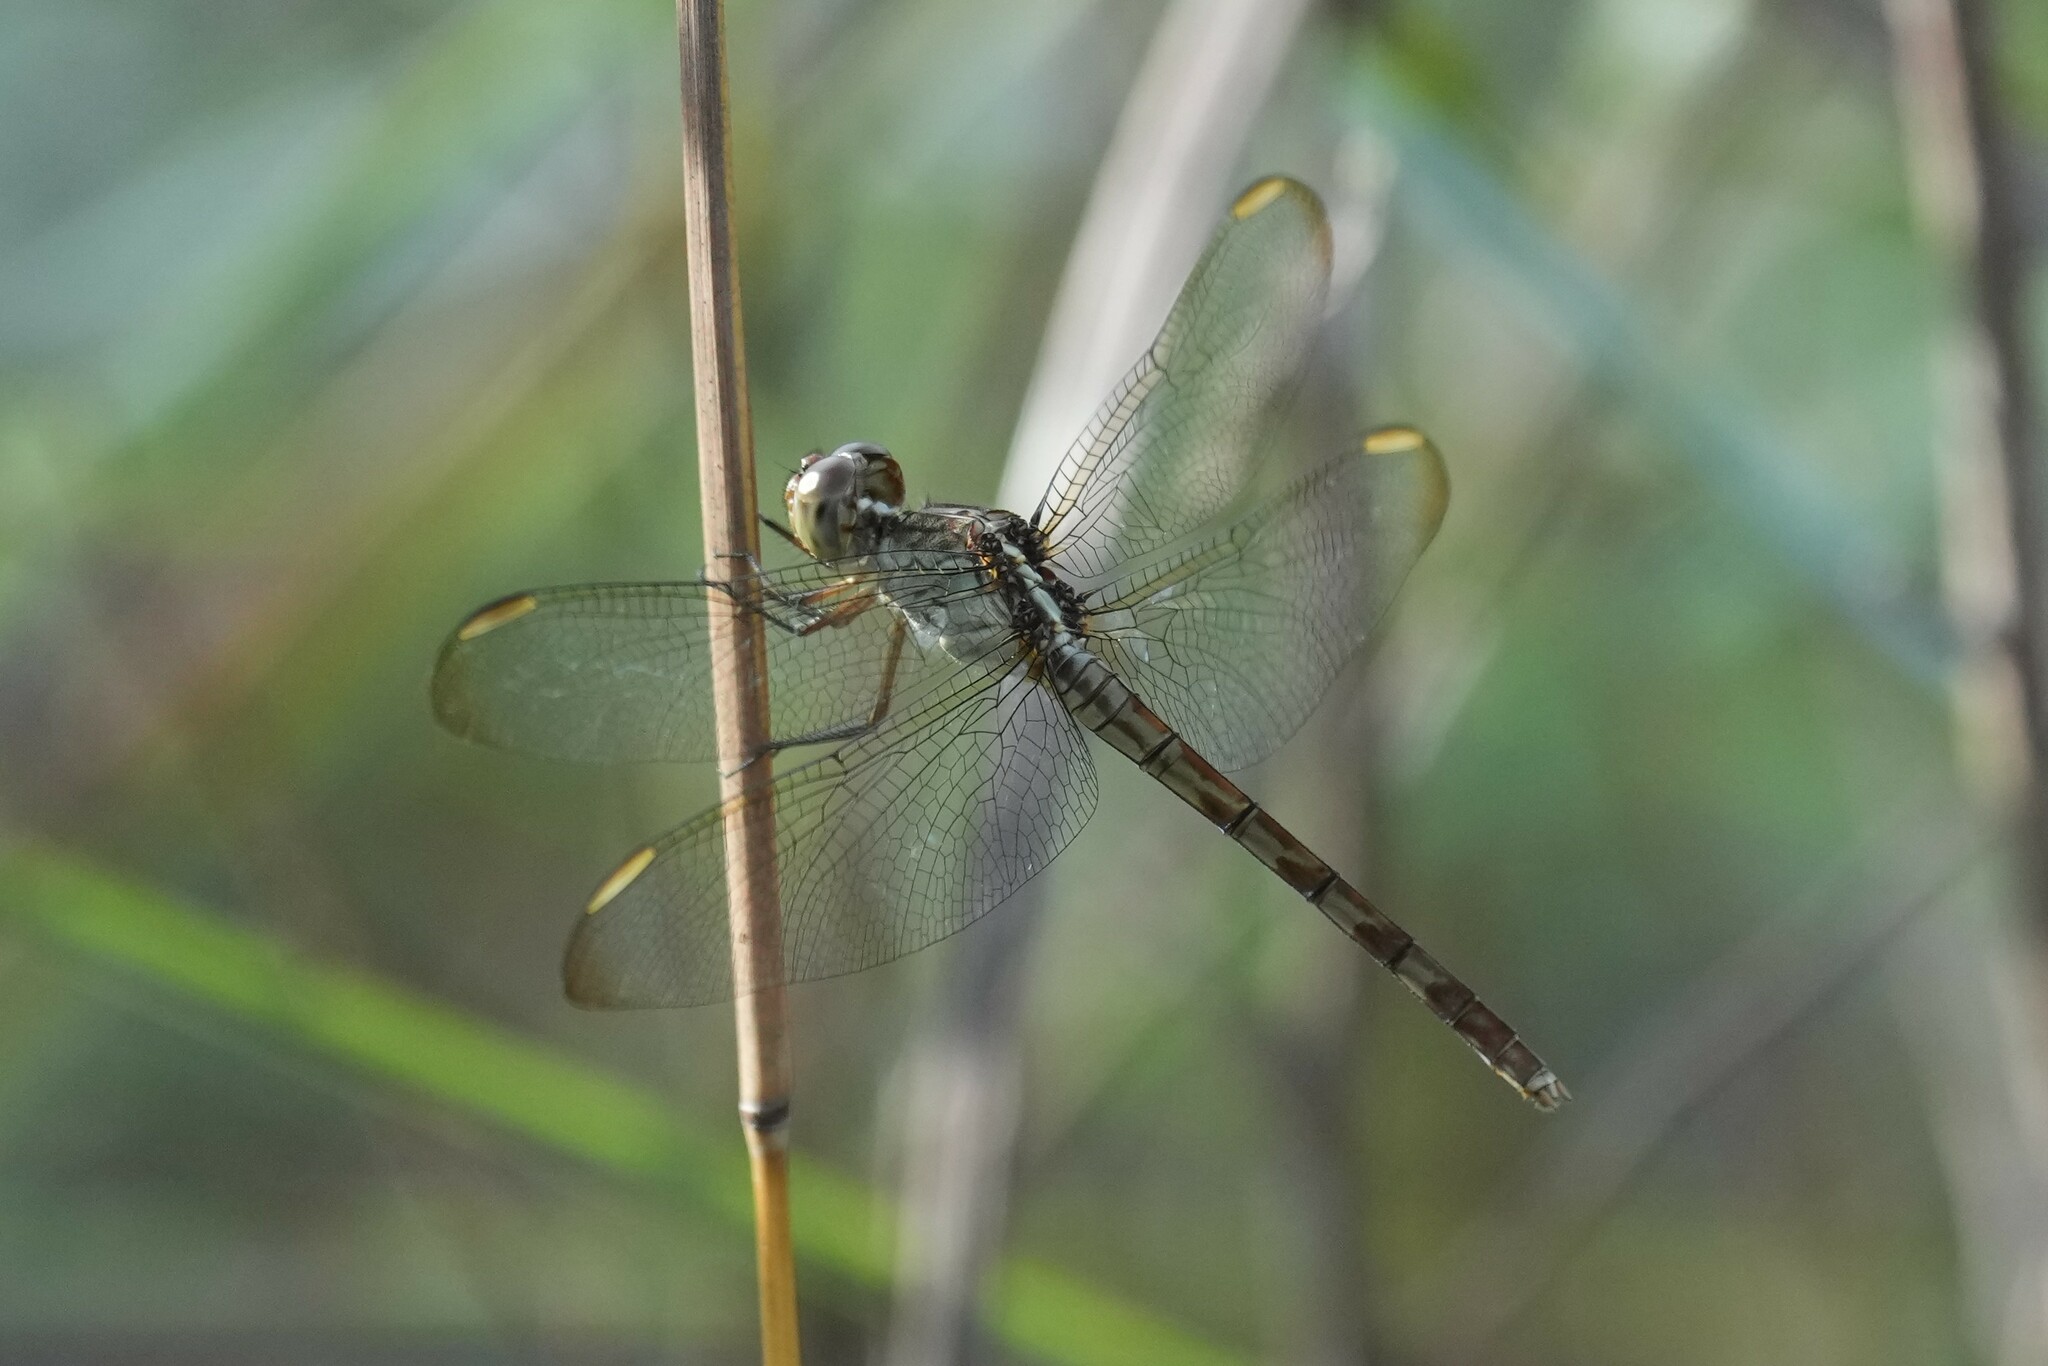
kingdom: Animalia
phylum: Arthropoda
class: Insecta
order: Odonata
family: Libellulidae
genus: Erythrodiplax
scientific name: Erythrodiplax umbrata
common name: Band-winged dragonlet
